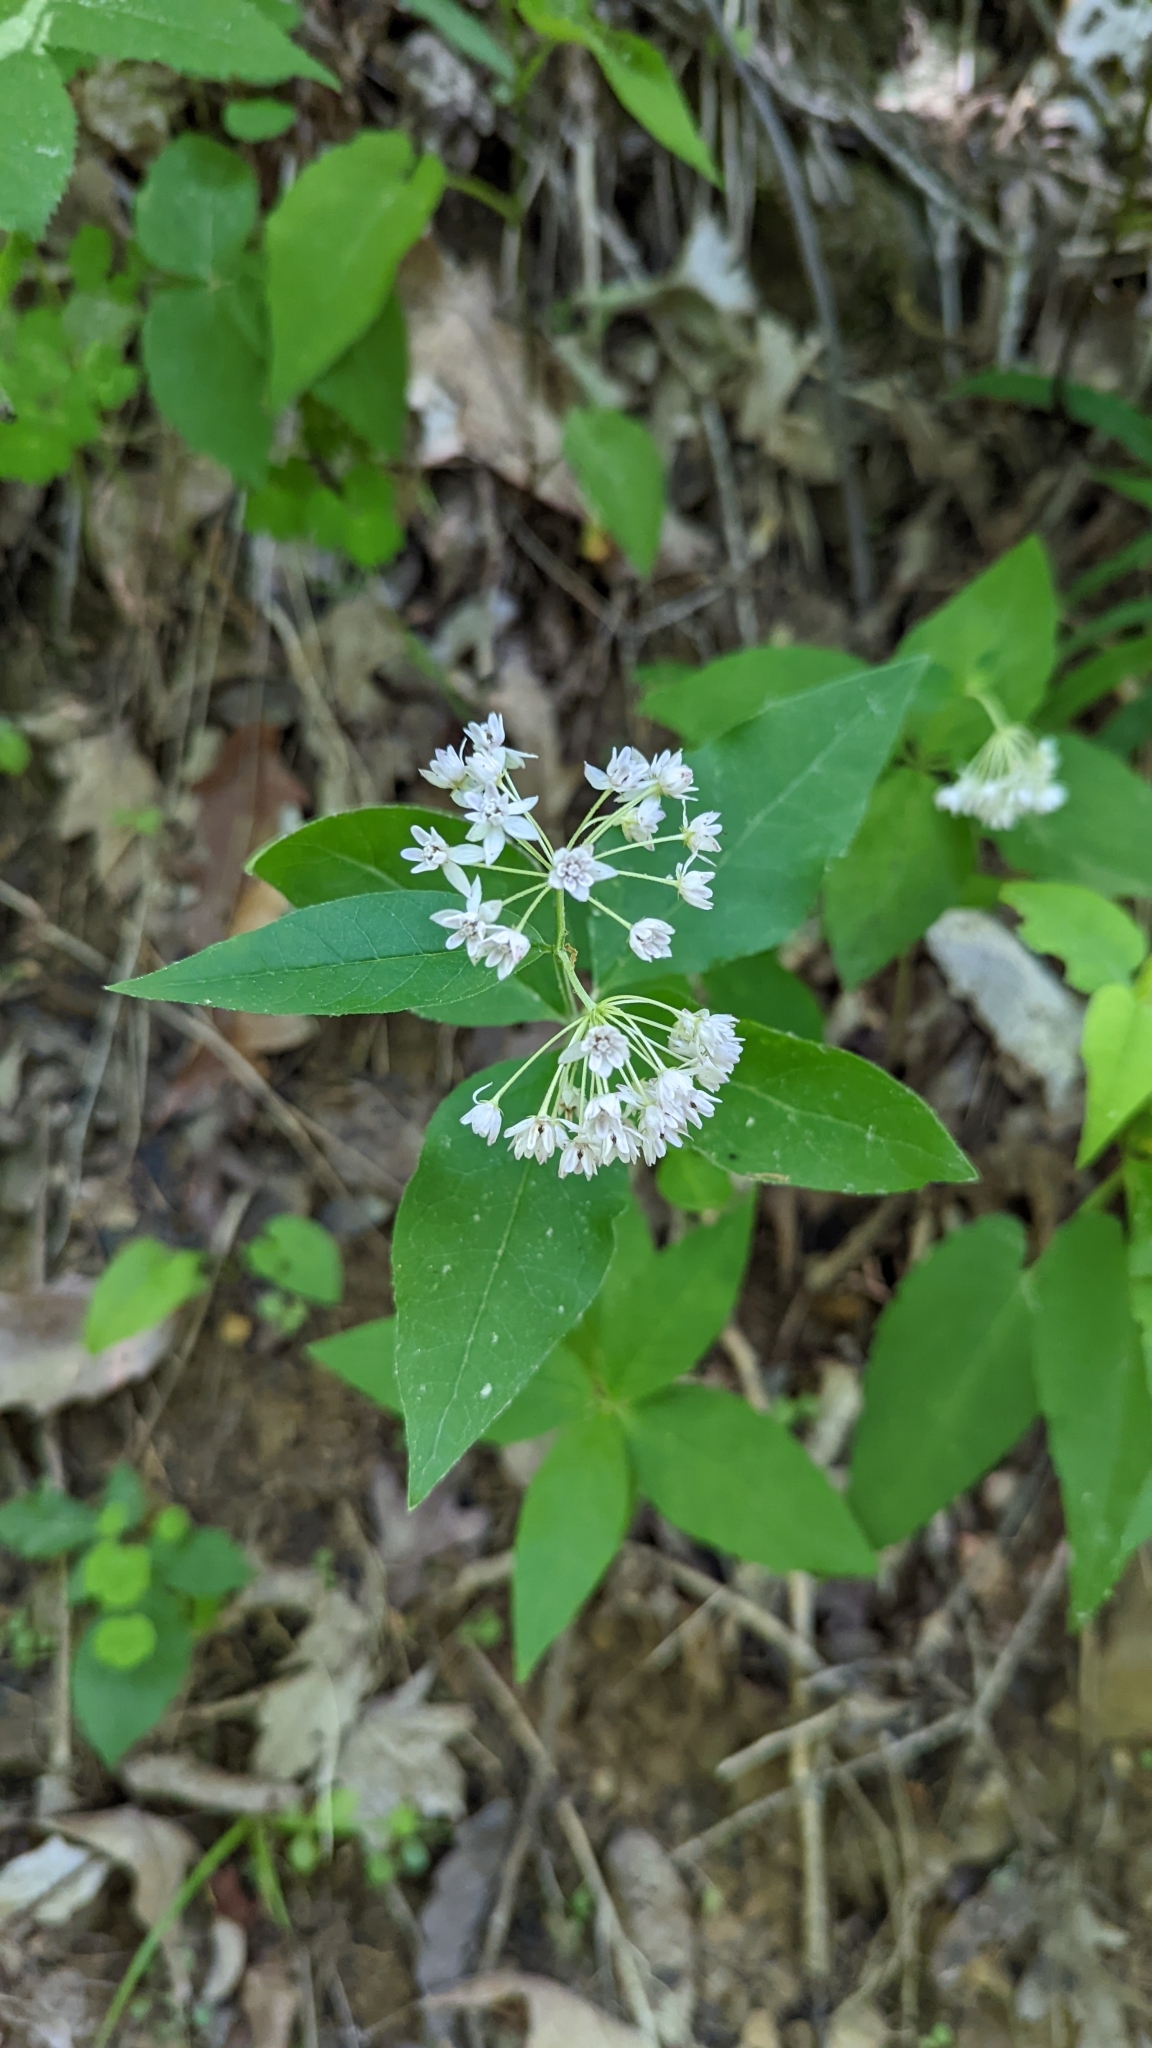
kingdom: Plantae
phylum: Tracheophyta
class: Magnoliopsida
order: Gentianales
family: Apocynaceae
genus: Asclepias
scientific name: Asclepias quadrifolia
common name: Whorled milkweed
